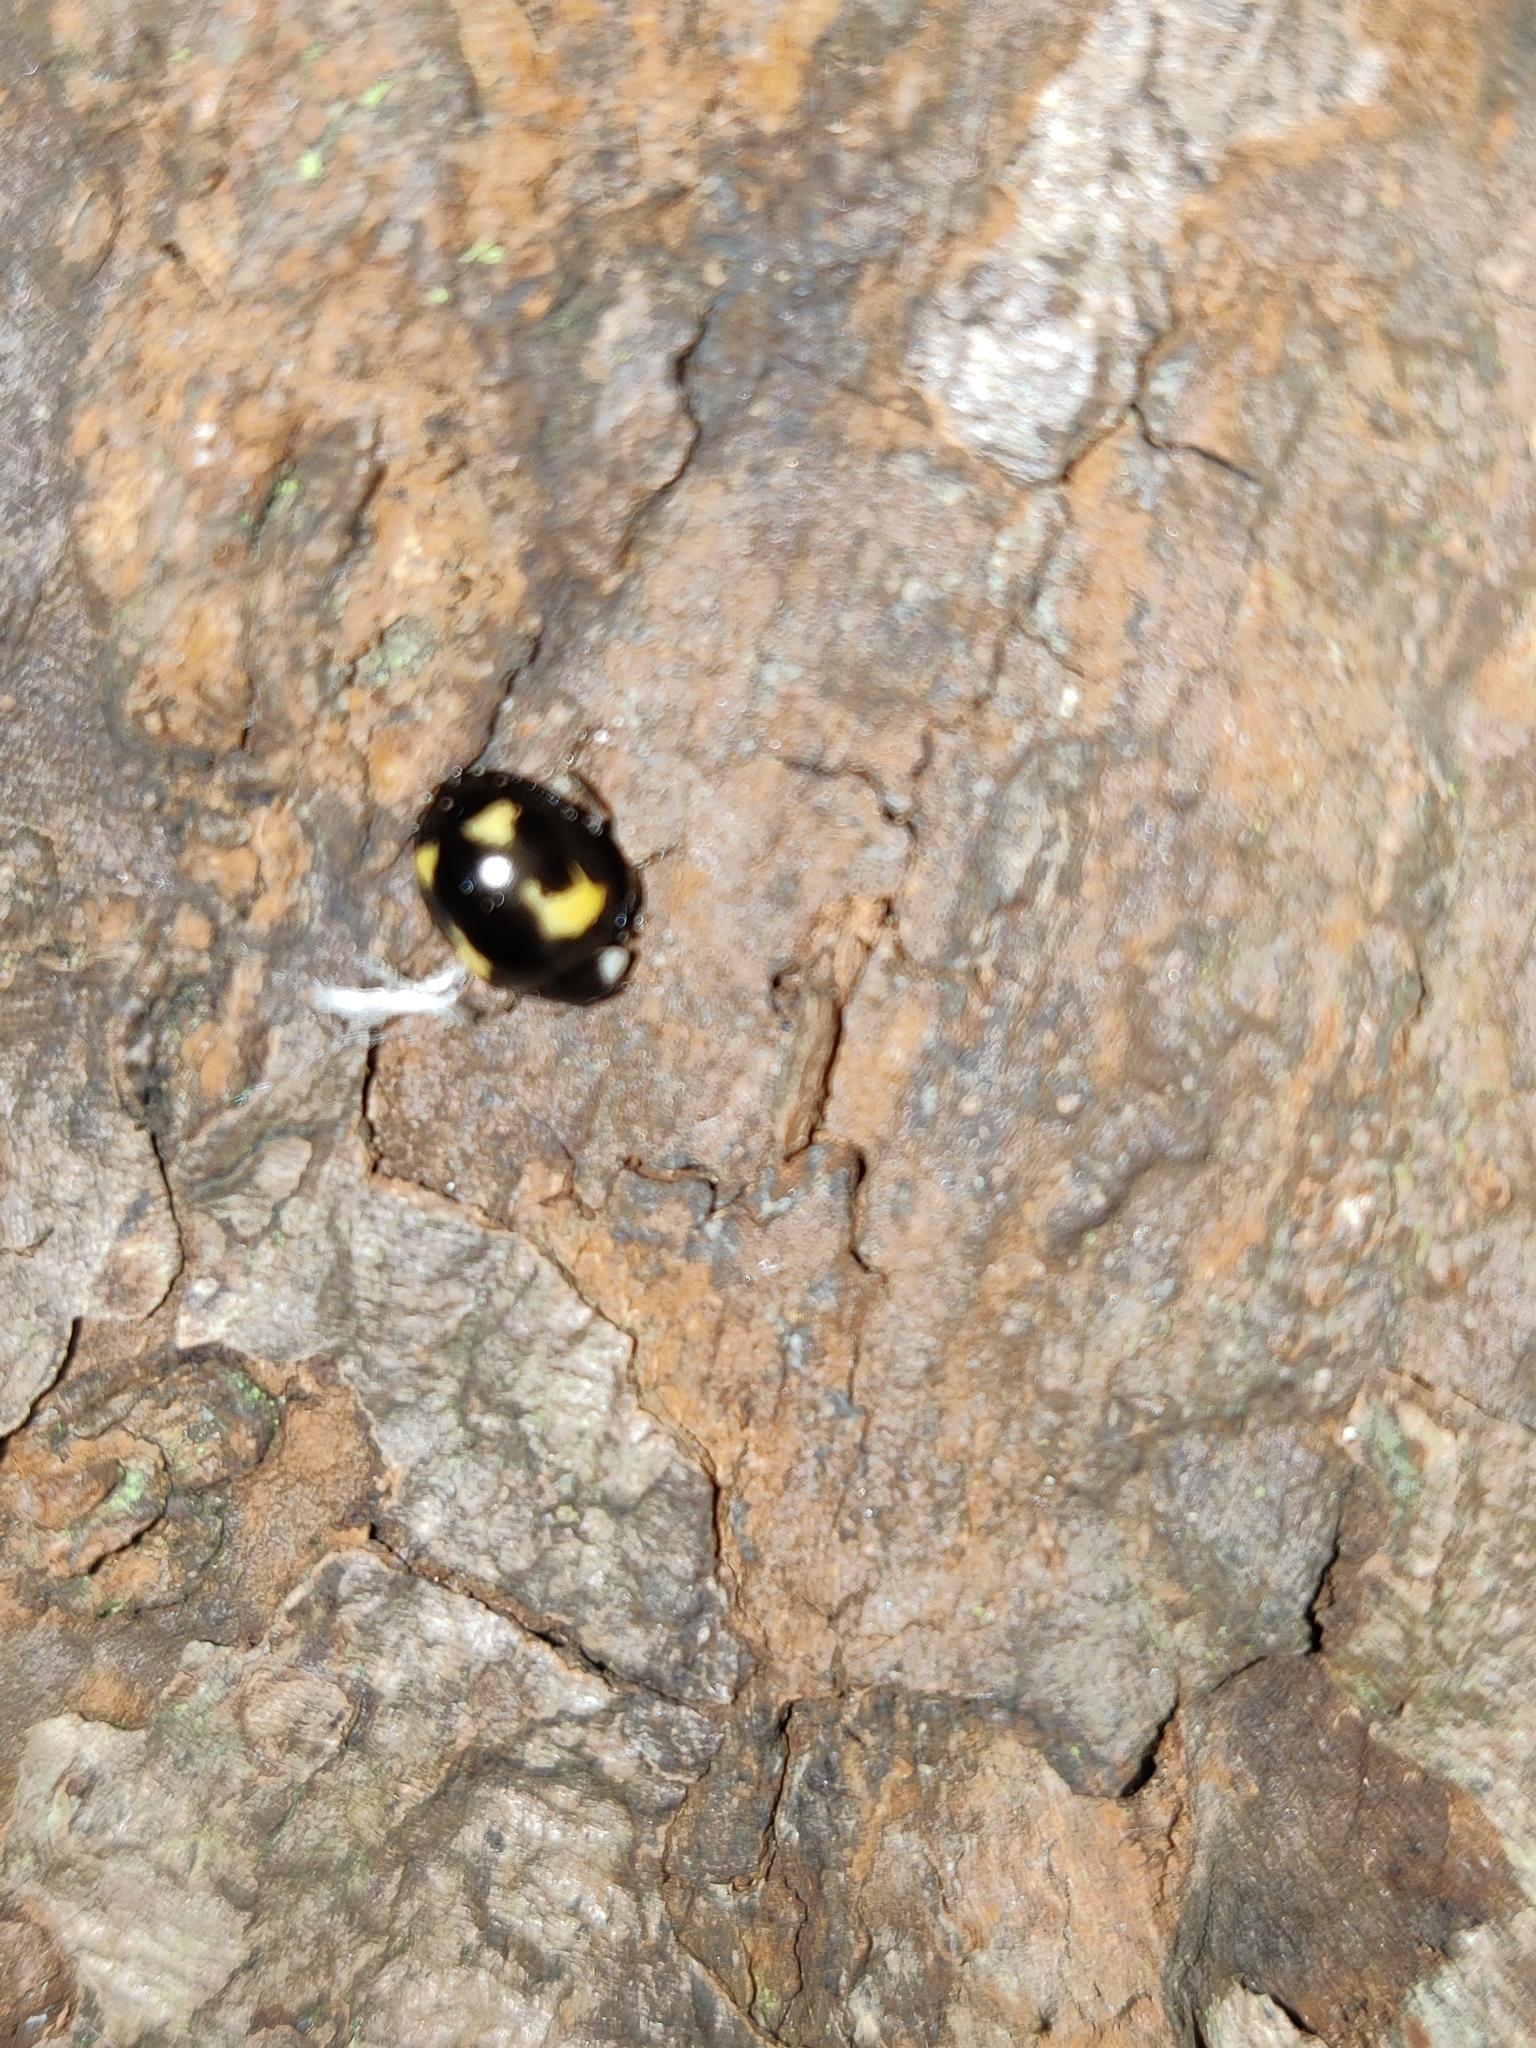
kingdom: Animalia
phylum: Arthropoda
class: Insecta
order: Coleoptera
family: Coccinellidae
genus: Harmonia
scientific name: Harmonia axyridis
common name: Harlequin ladybird
